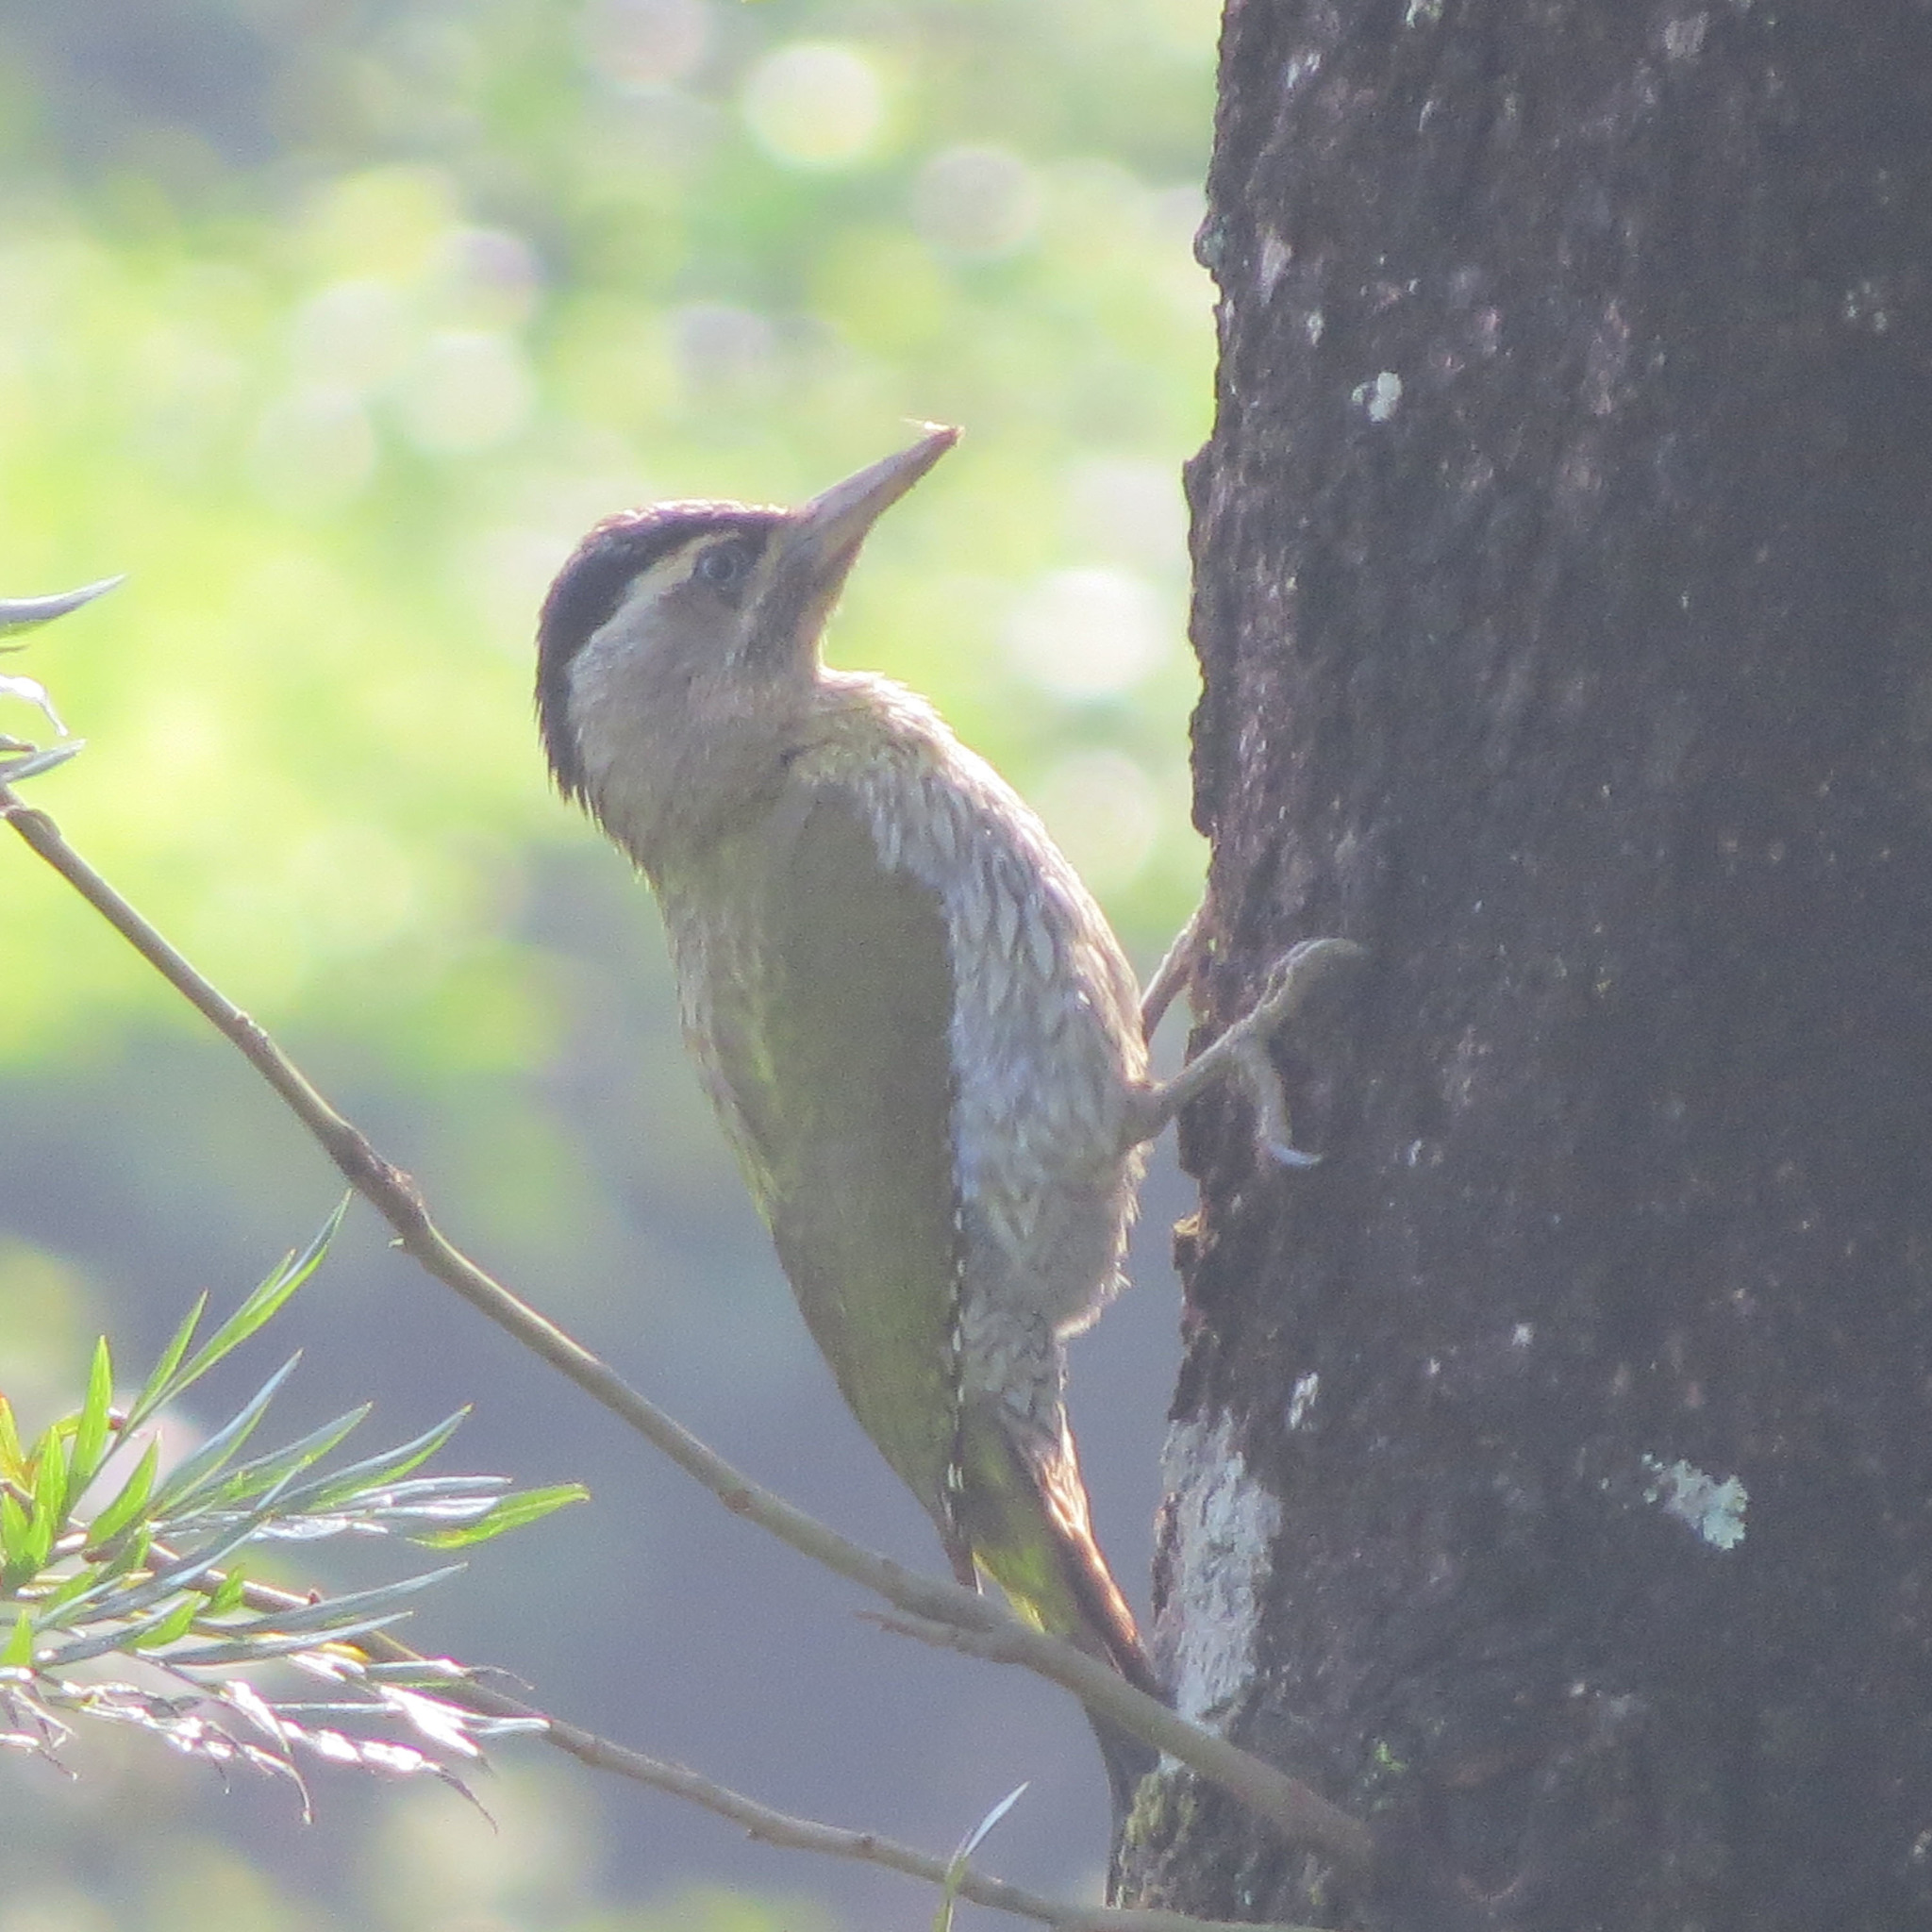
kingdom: Animalia
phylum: Chordata
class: Aves
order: Piciformes
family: Picidae
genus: Picus
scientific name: Picus xanthopygaeus
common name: Streak-throated woodpecker
